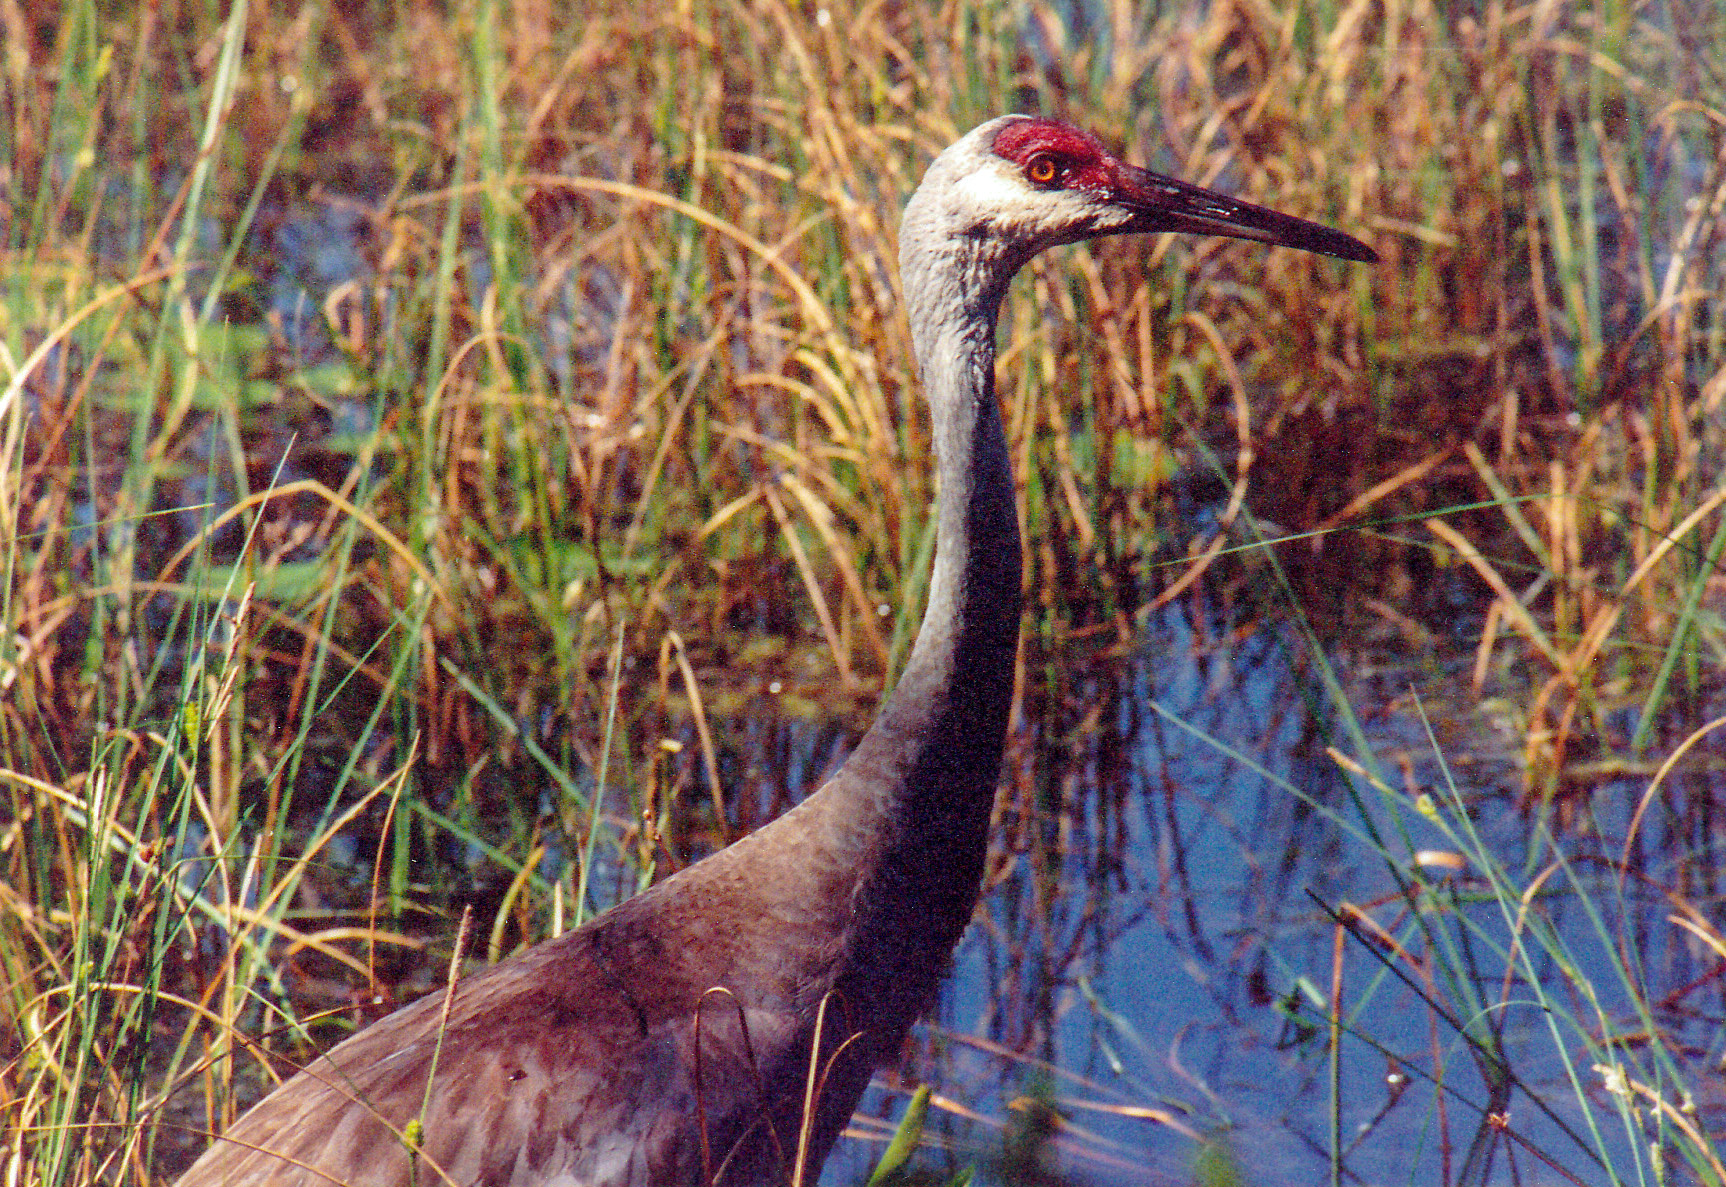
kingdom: Animalia
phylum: Chordata
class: Aves
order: Gruiformes
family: Gruidae
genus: Grus
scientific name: Grus canadensis
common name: Sandhill crane
